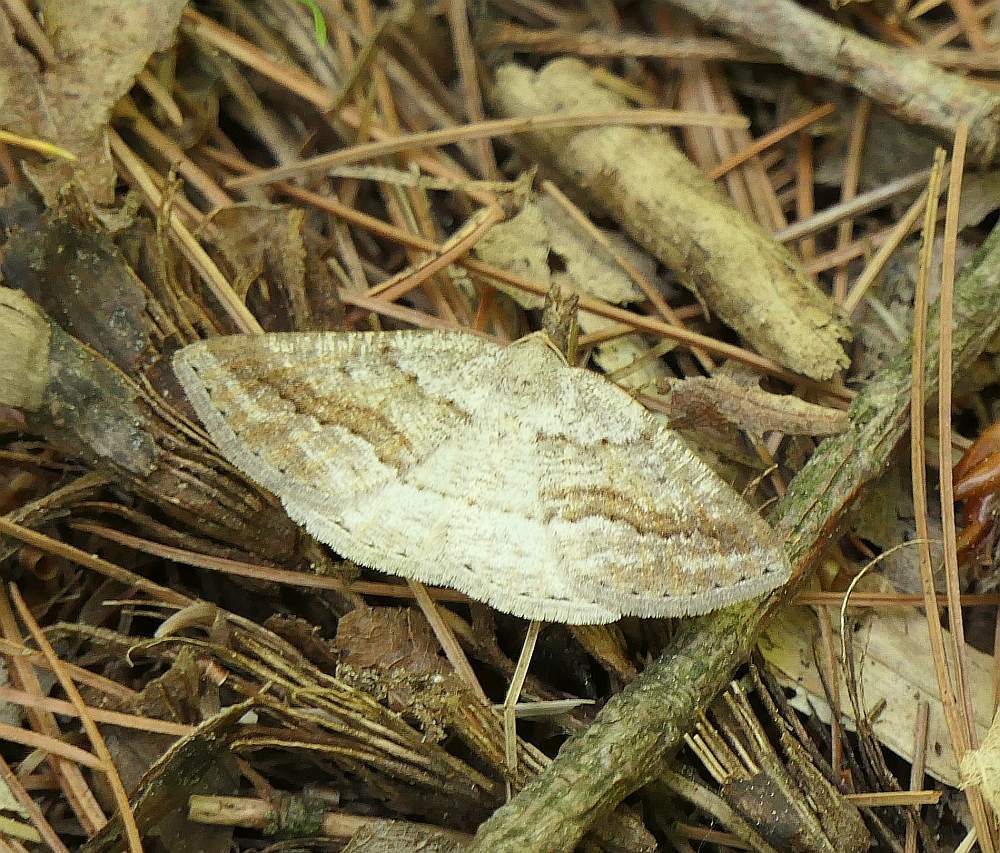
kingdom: Animalia
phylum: Arthropoda
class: Insecta
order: Lepidoptera
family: Geometridae
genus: Tacparia
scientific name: Tacparia detersata
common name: Pale alder moth
